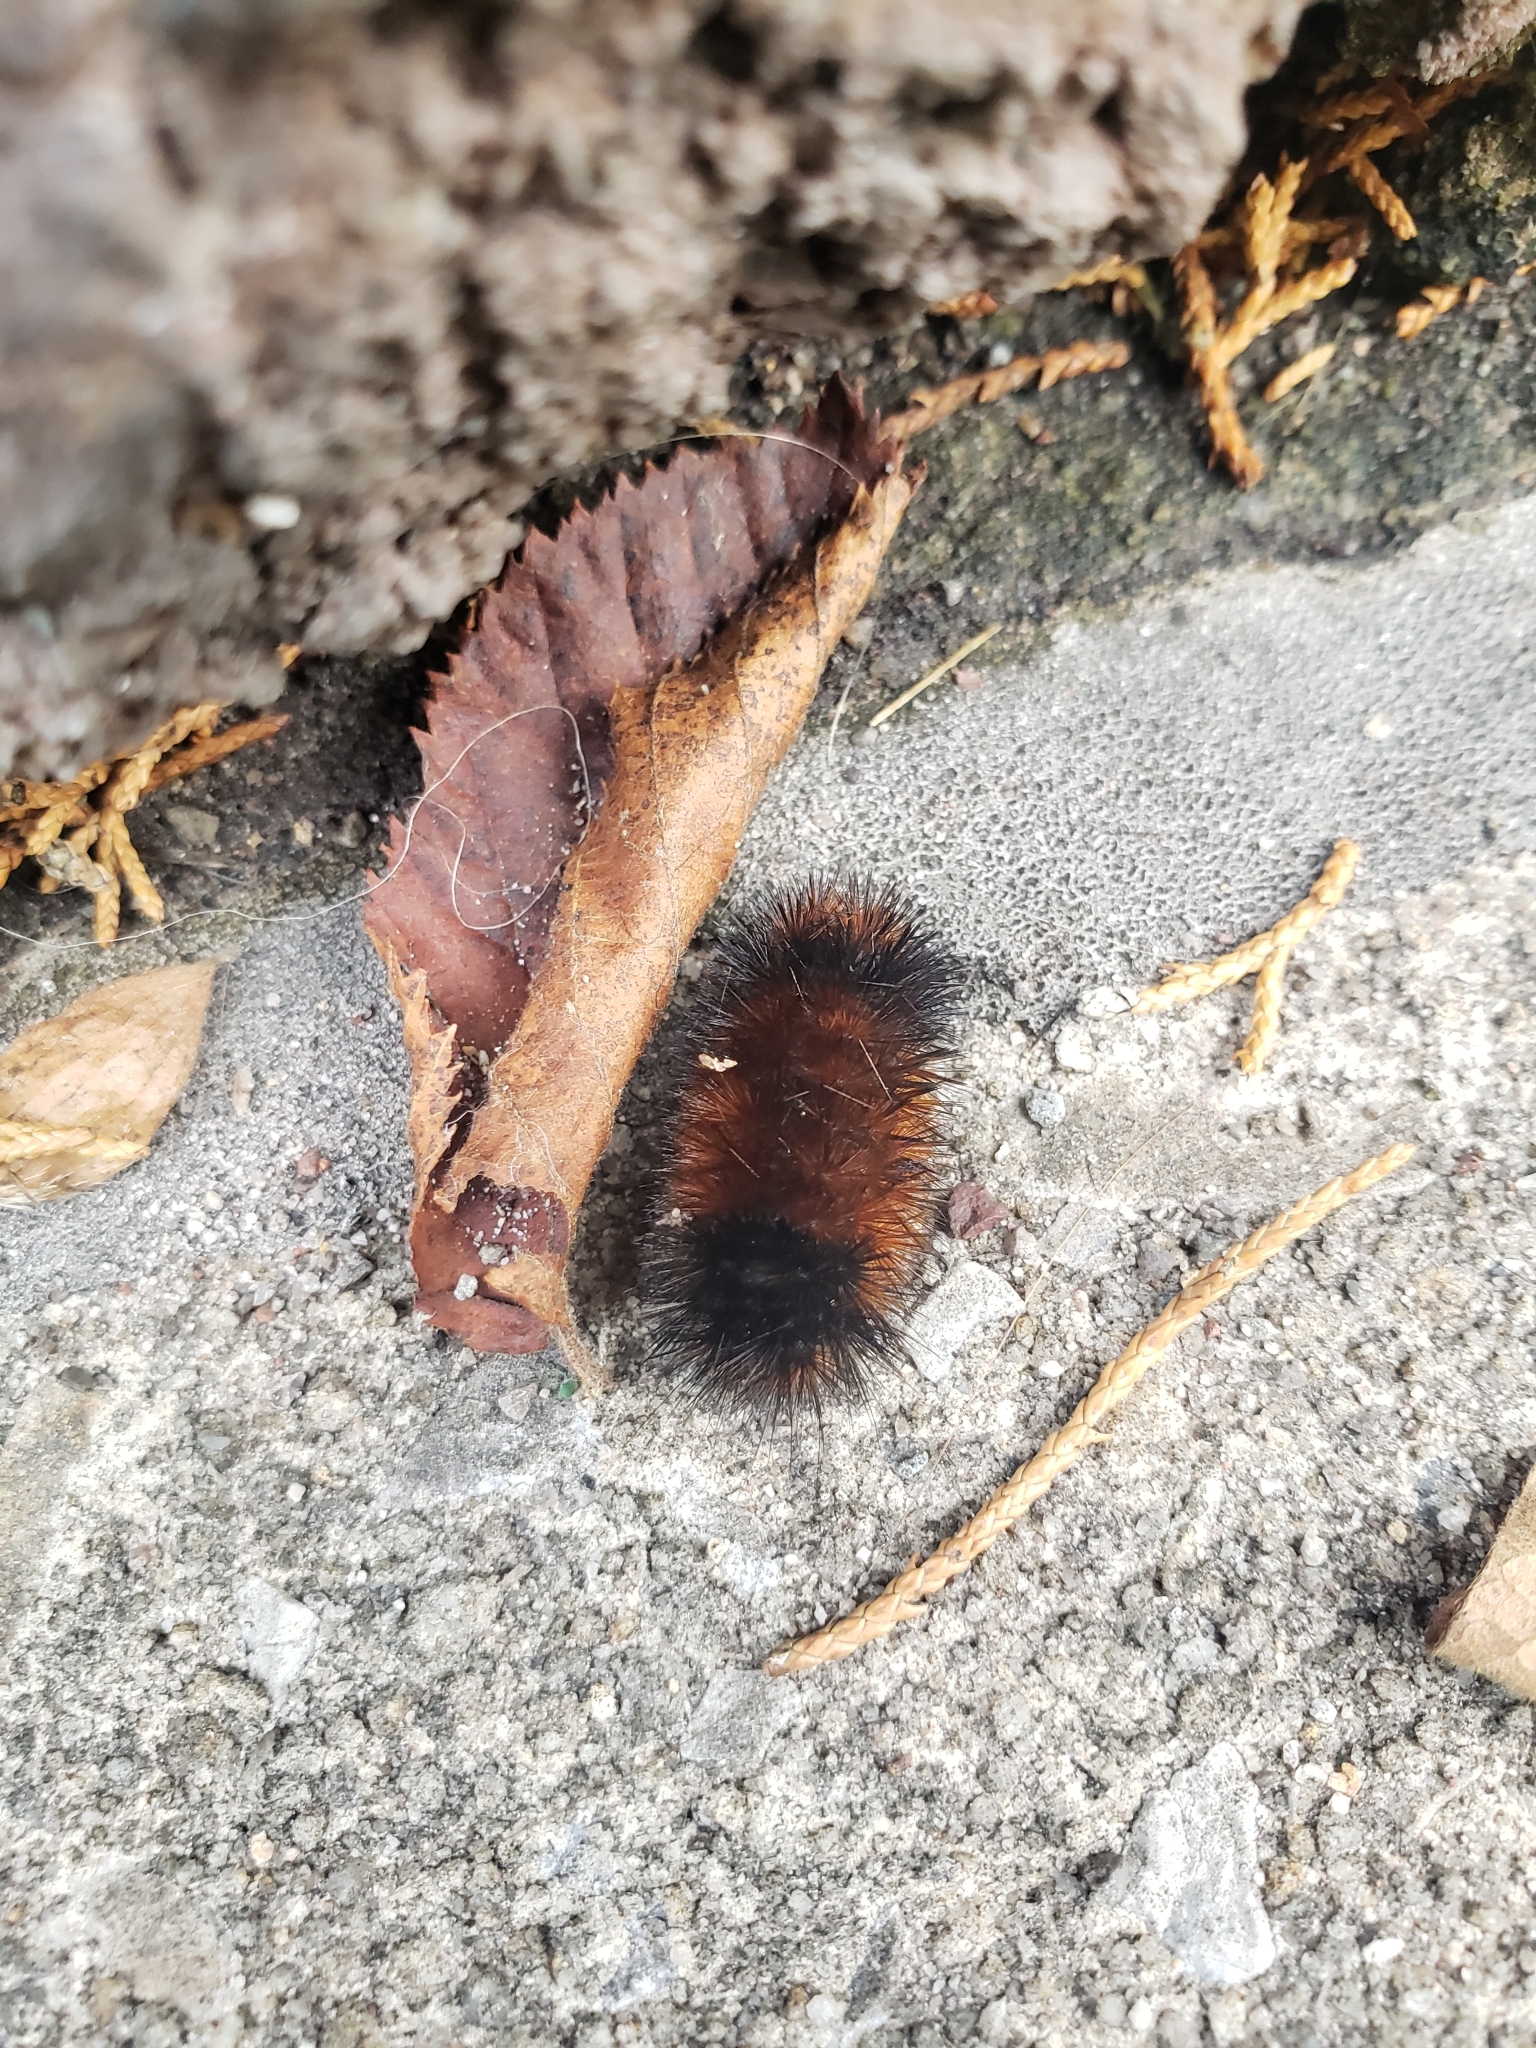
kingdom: Animalia
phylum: Arthropoda
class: Insecta
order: Lepidoptera
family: Erebidae
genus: Pyrrharctia
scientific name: Pyrrharctia isabella
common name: Isabella tiger moth
